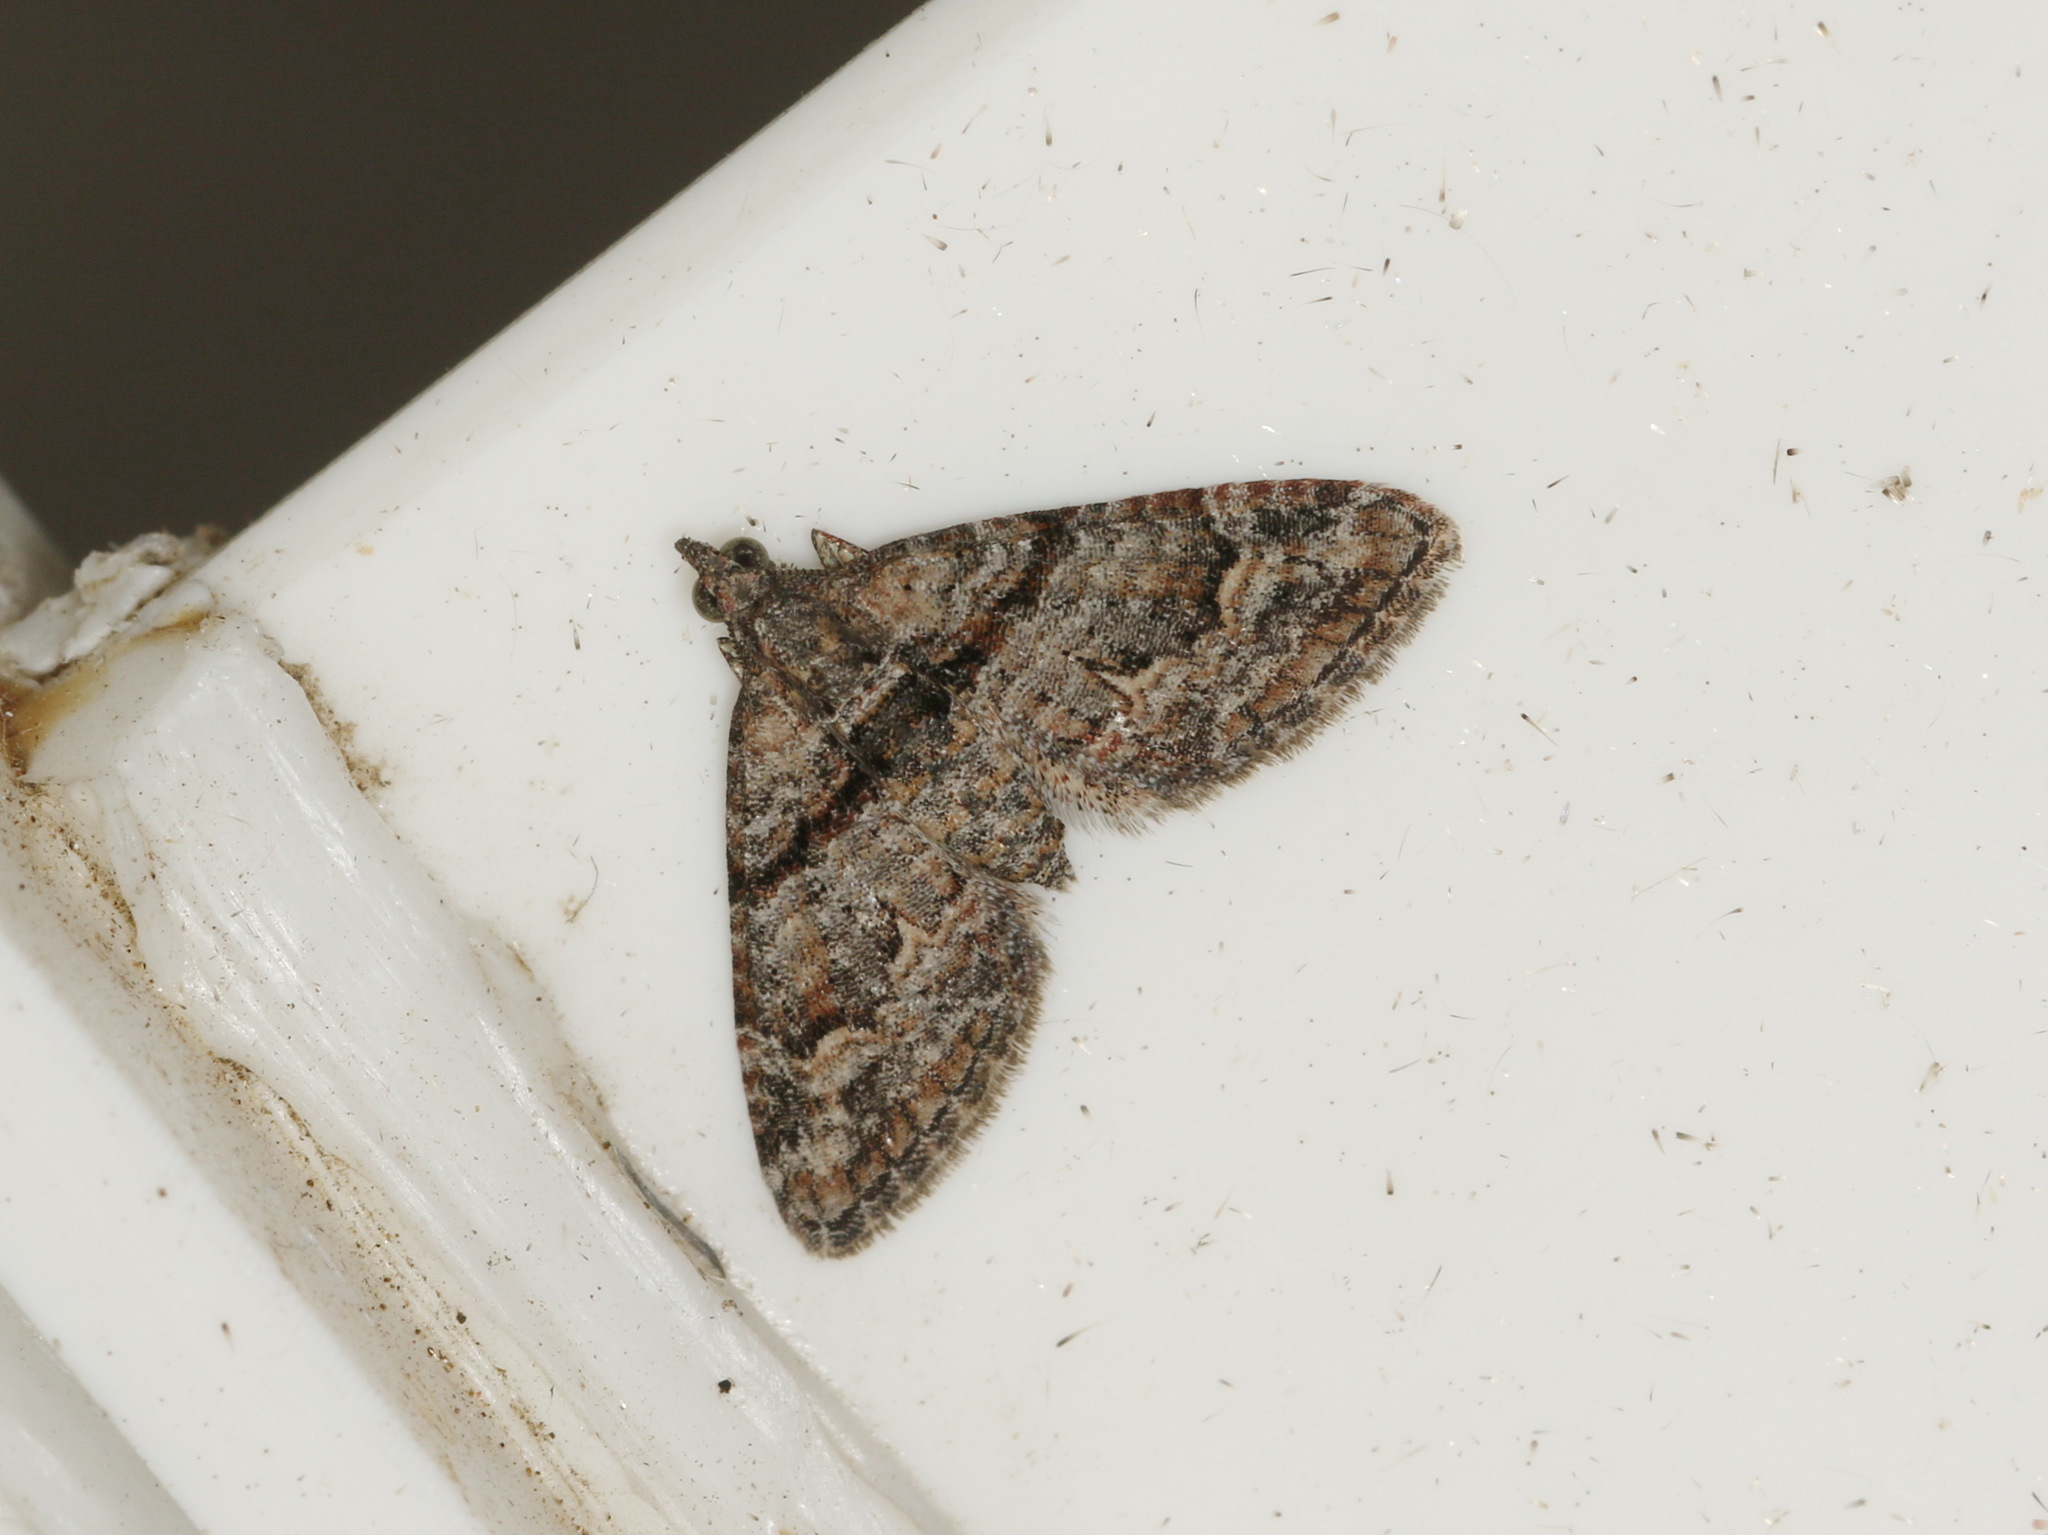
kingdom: Animalia
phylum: Arthropoda
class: Insecta
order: Lepidoptera
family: Geometridae
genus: Phrissogonus
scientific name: Phrissogonus laticostata
